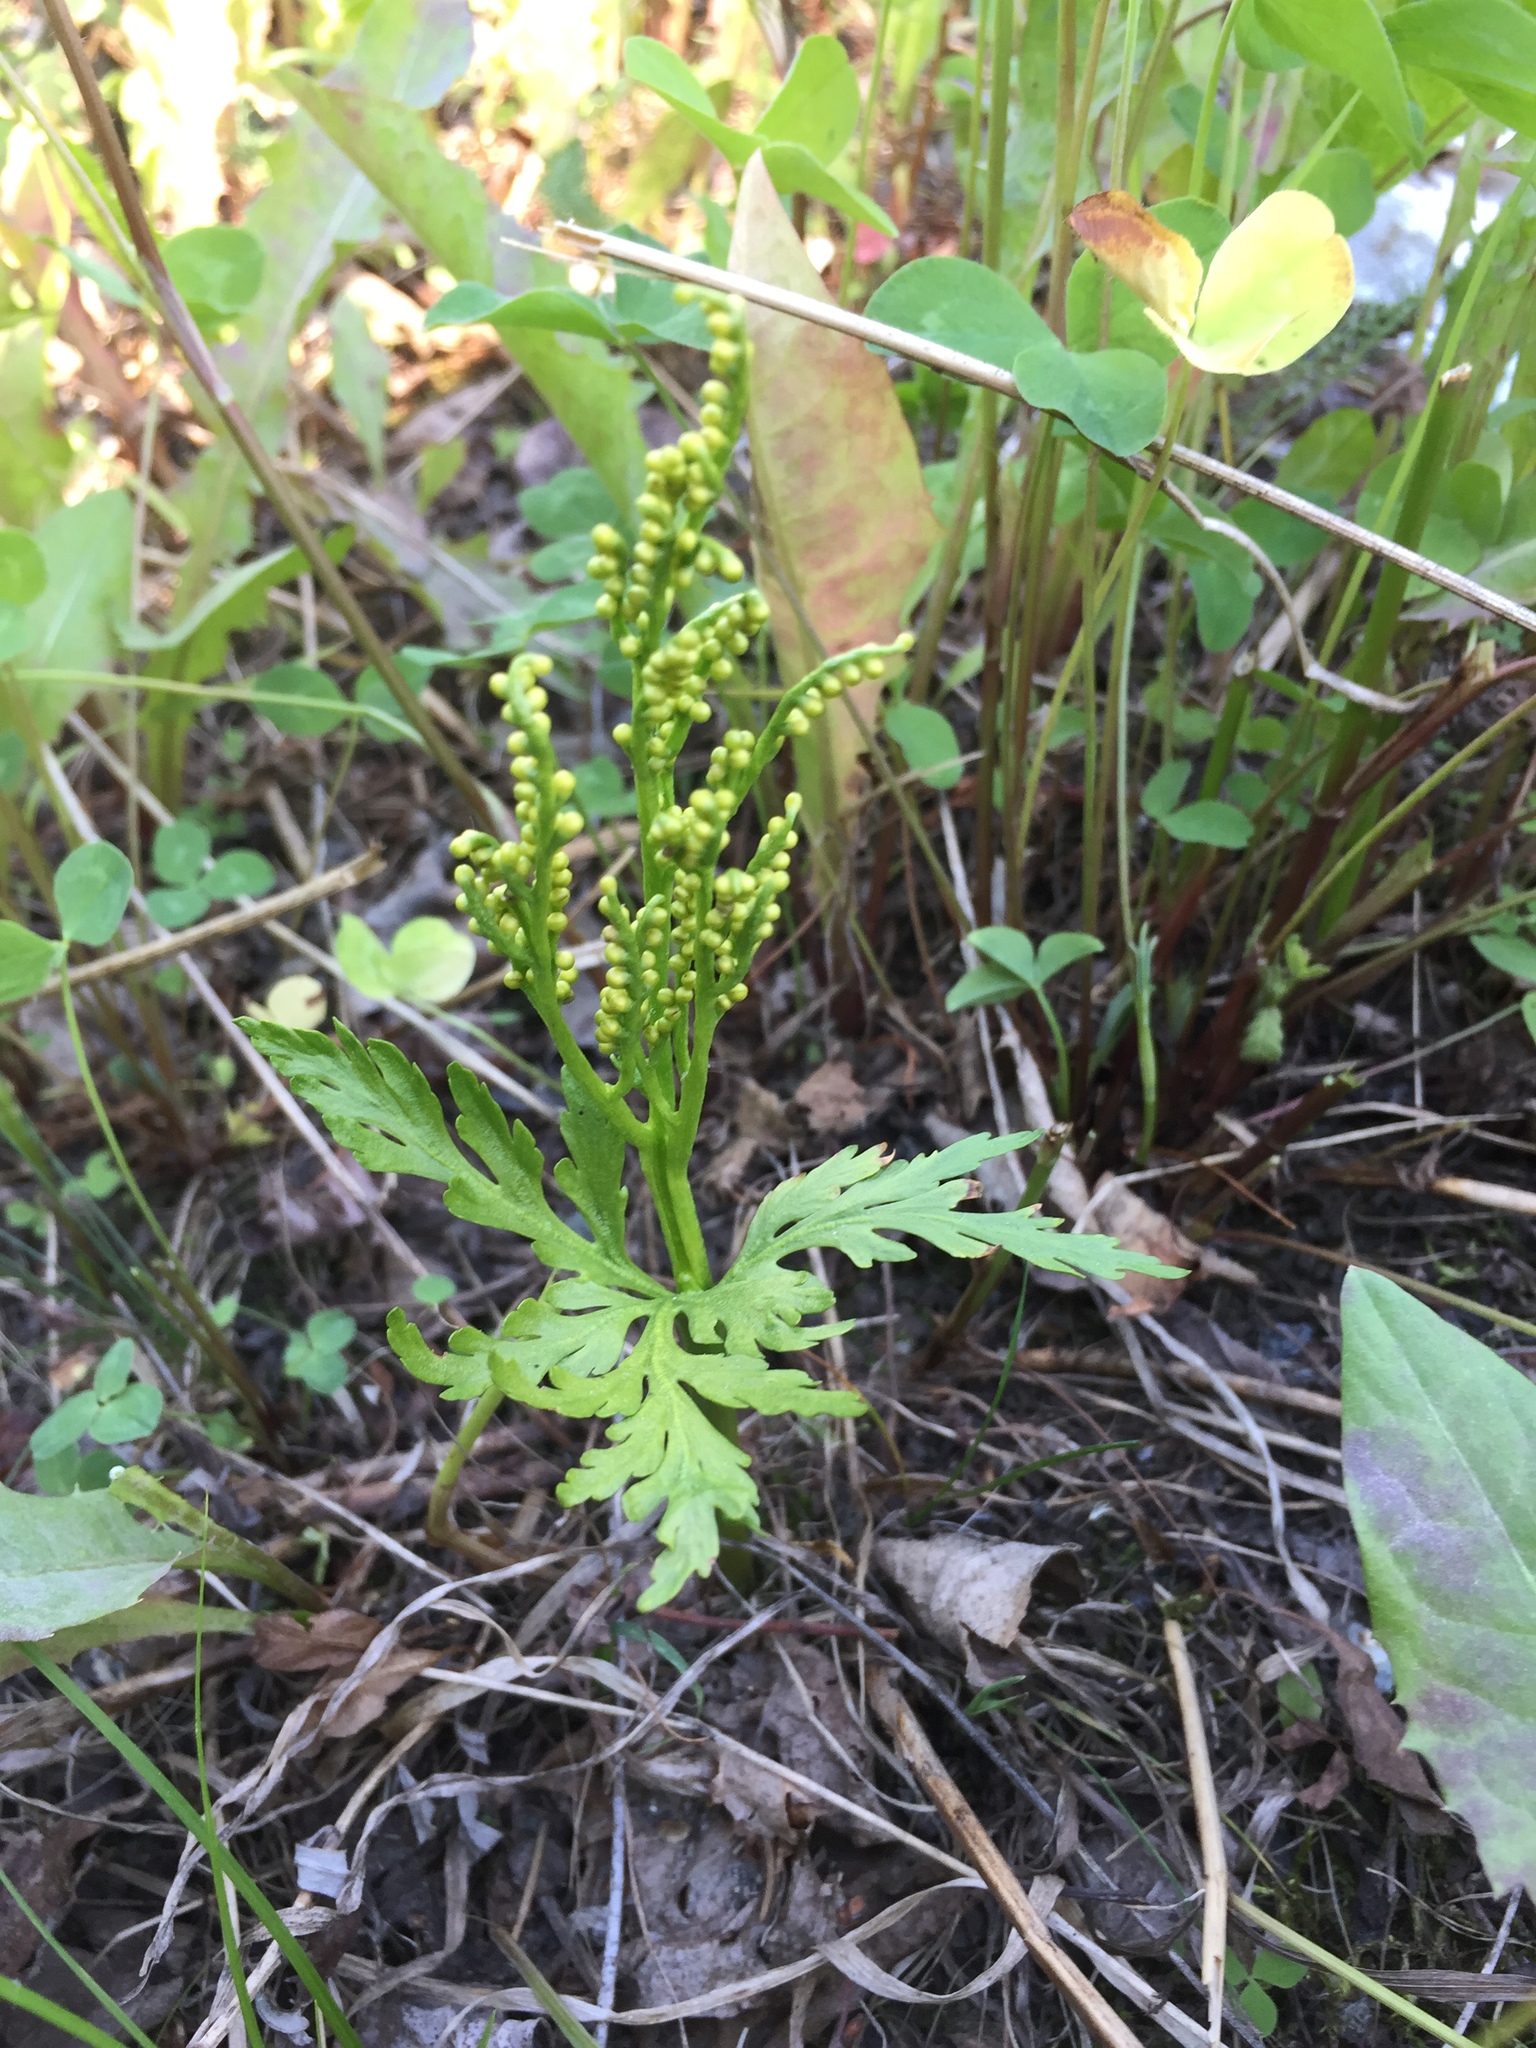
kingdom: Plantae
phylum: Tracheophyta
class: Polypodiopsida
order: Ophioglossales
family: Ophioglossaceae
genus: Botrychium
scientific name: Botrychium lanceolatum
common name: Lance-leaved moonwort
